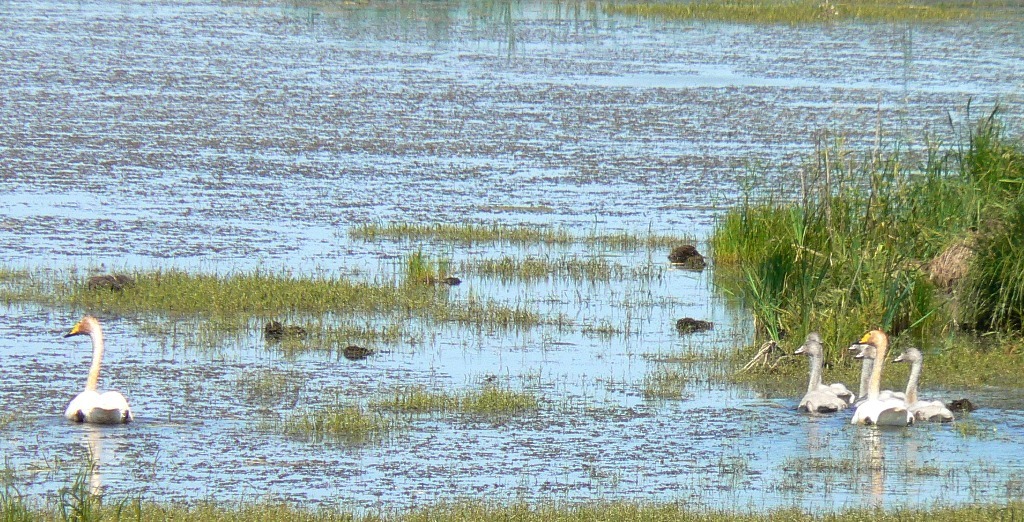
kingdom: Animalia
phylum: Chordata
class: Aves
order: Anseriformes
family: Anatidae
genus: Cygnus
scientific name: Cygnus cygnus
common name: Whooper swan
